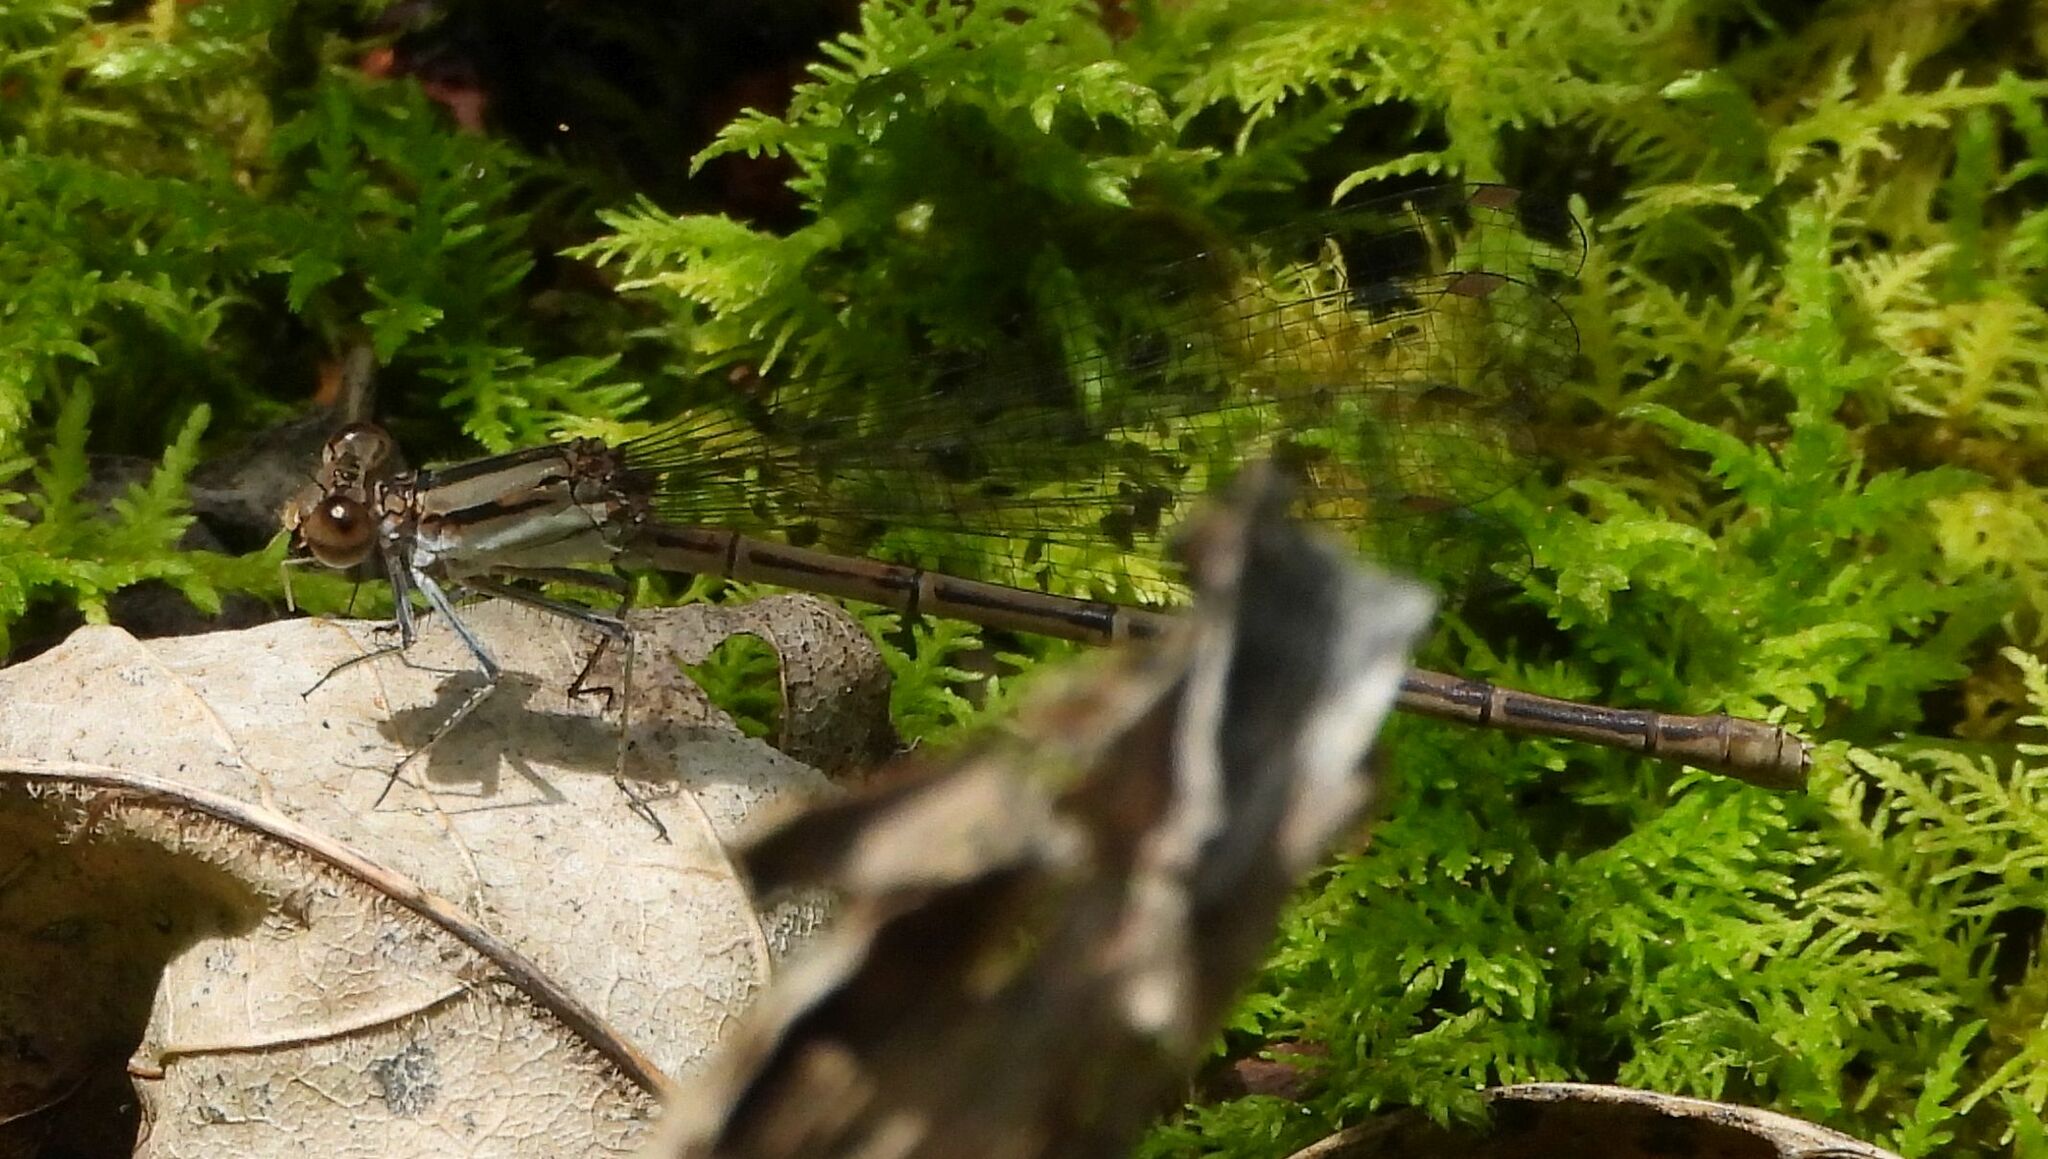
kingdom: Animalia
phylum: Arthropoda
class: Insecta
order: Odonata
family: Coenagrionidae
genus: Argia
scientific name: Argia fumipennis
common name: Variable dancer
